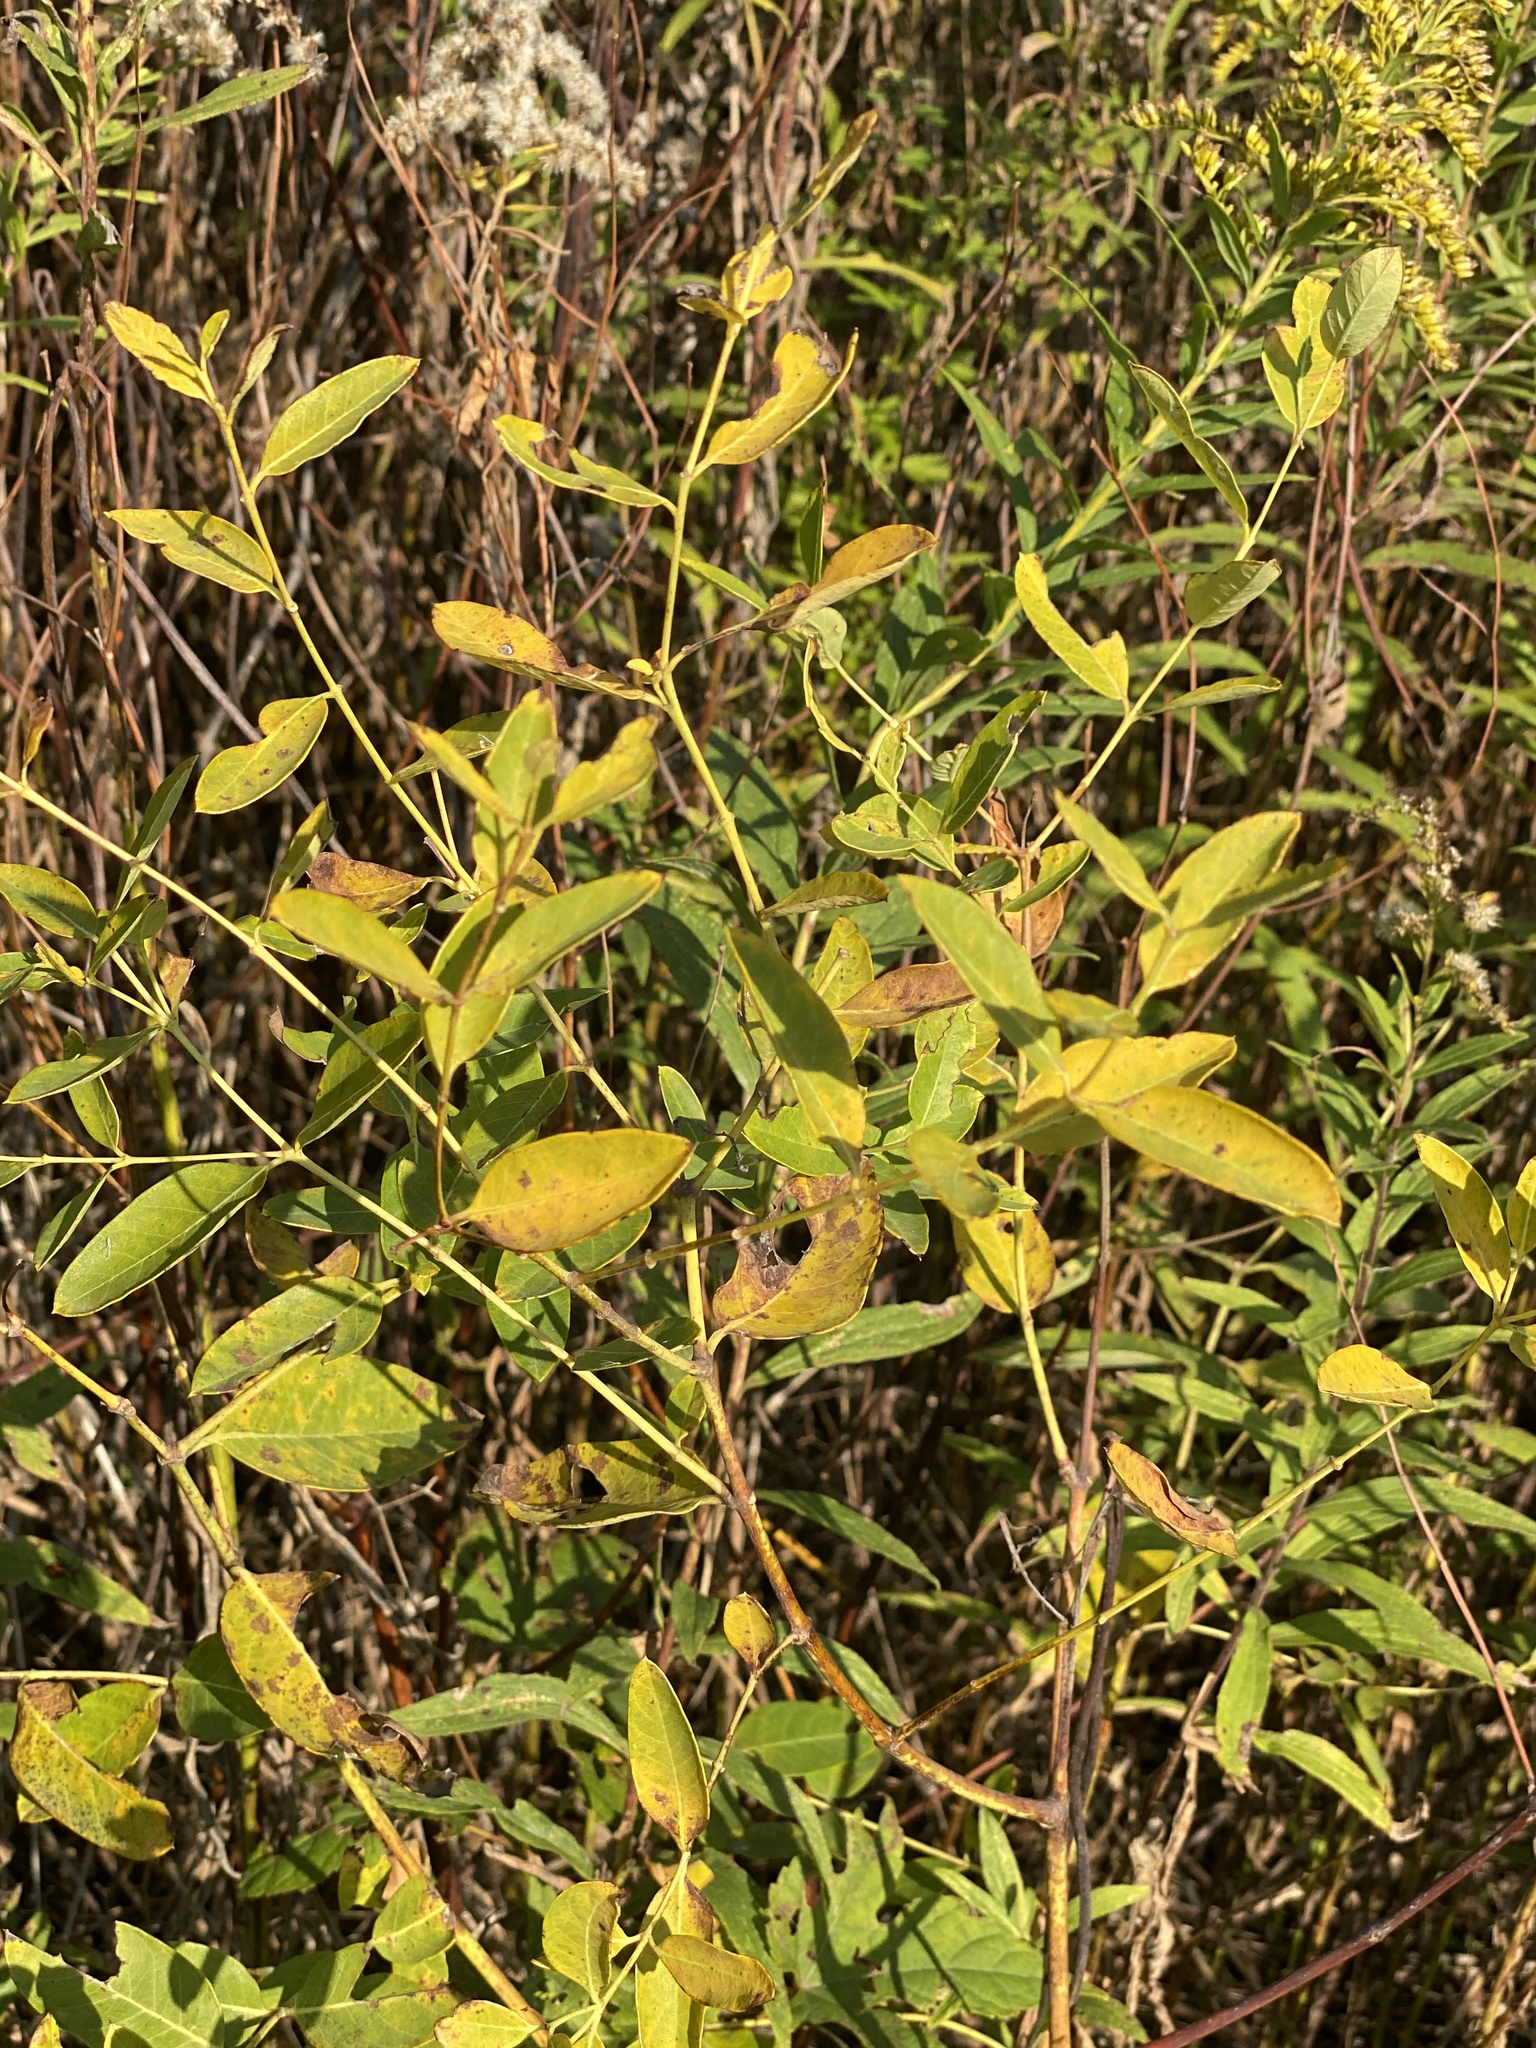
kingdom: Plantae
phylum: Tracheophyta
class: Magnoliopsida
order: Gentianales
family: Apocynaceae
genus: Apocynum
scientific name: Apocynum cannabinum
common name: Hemp dogbane
